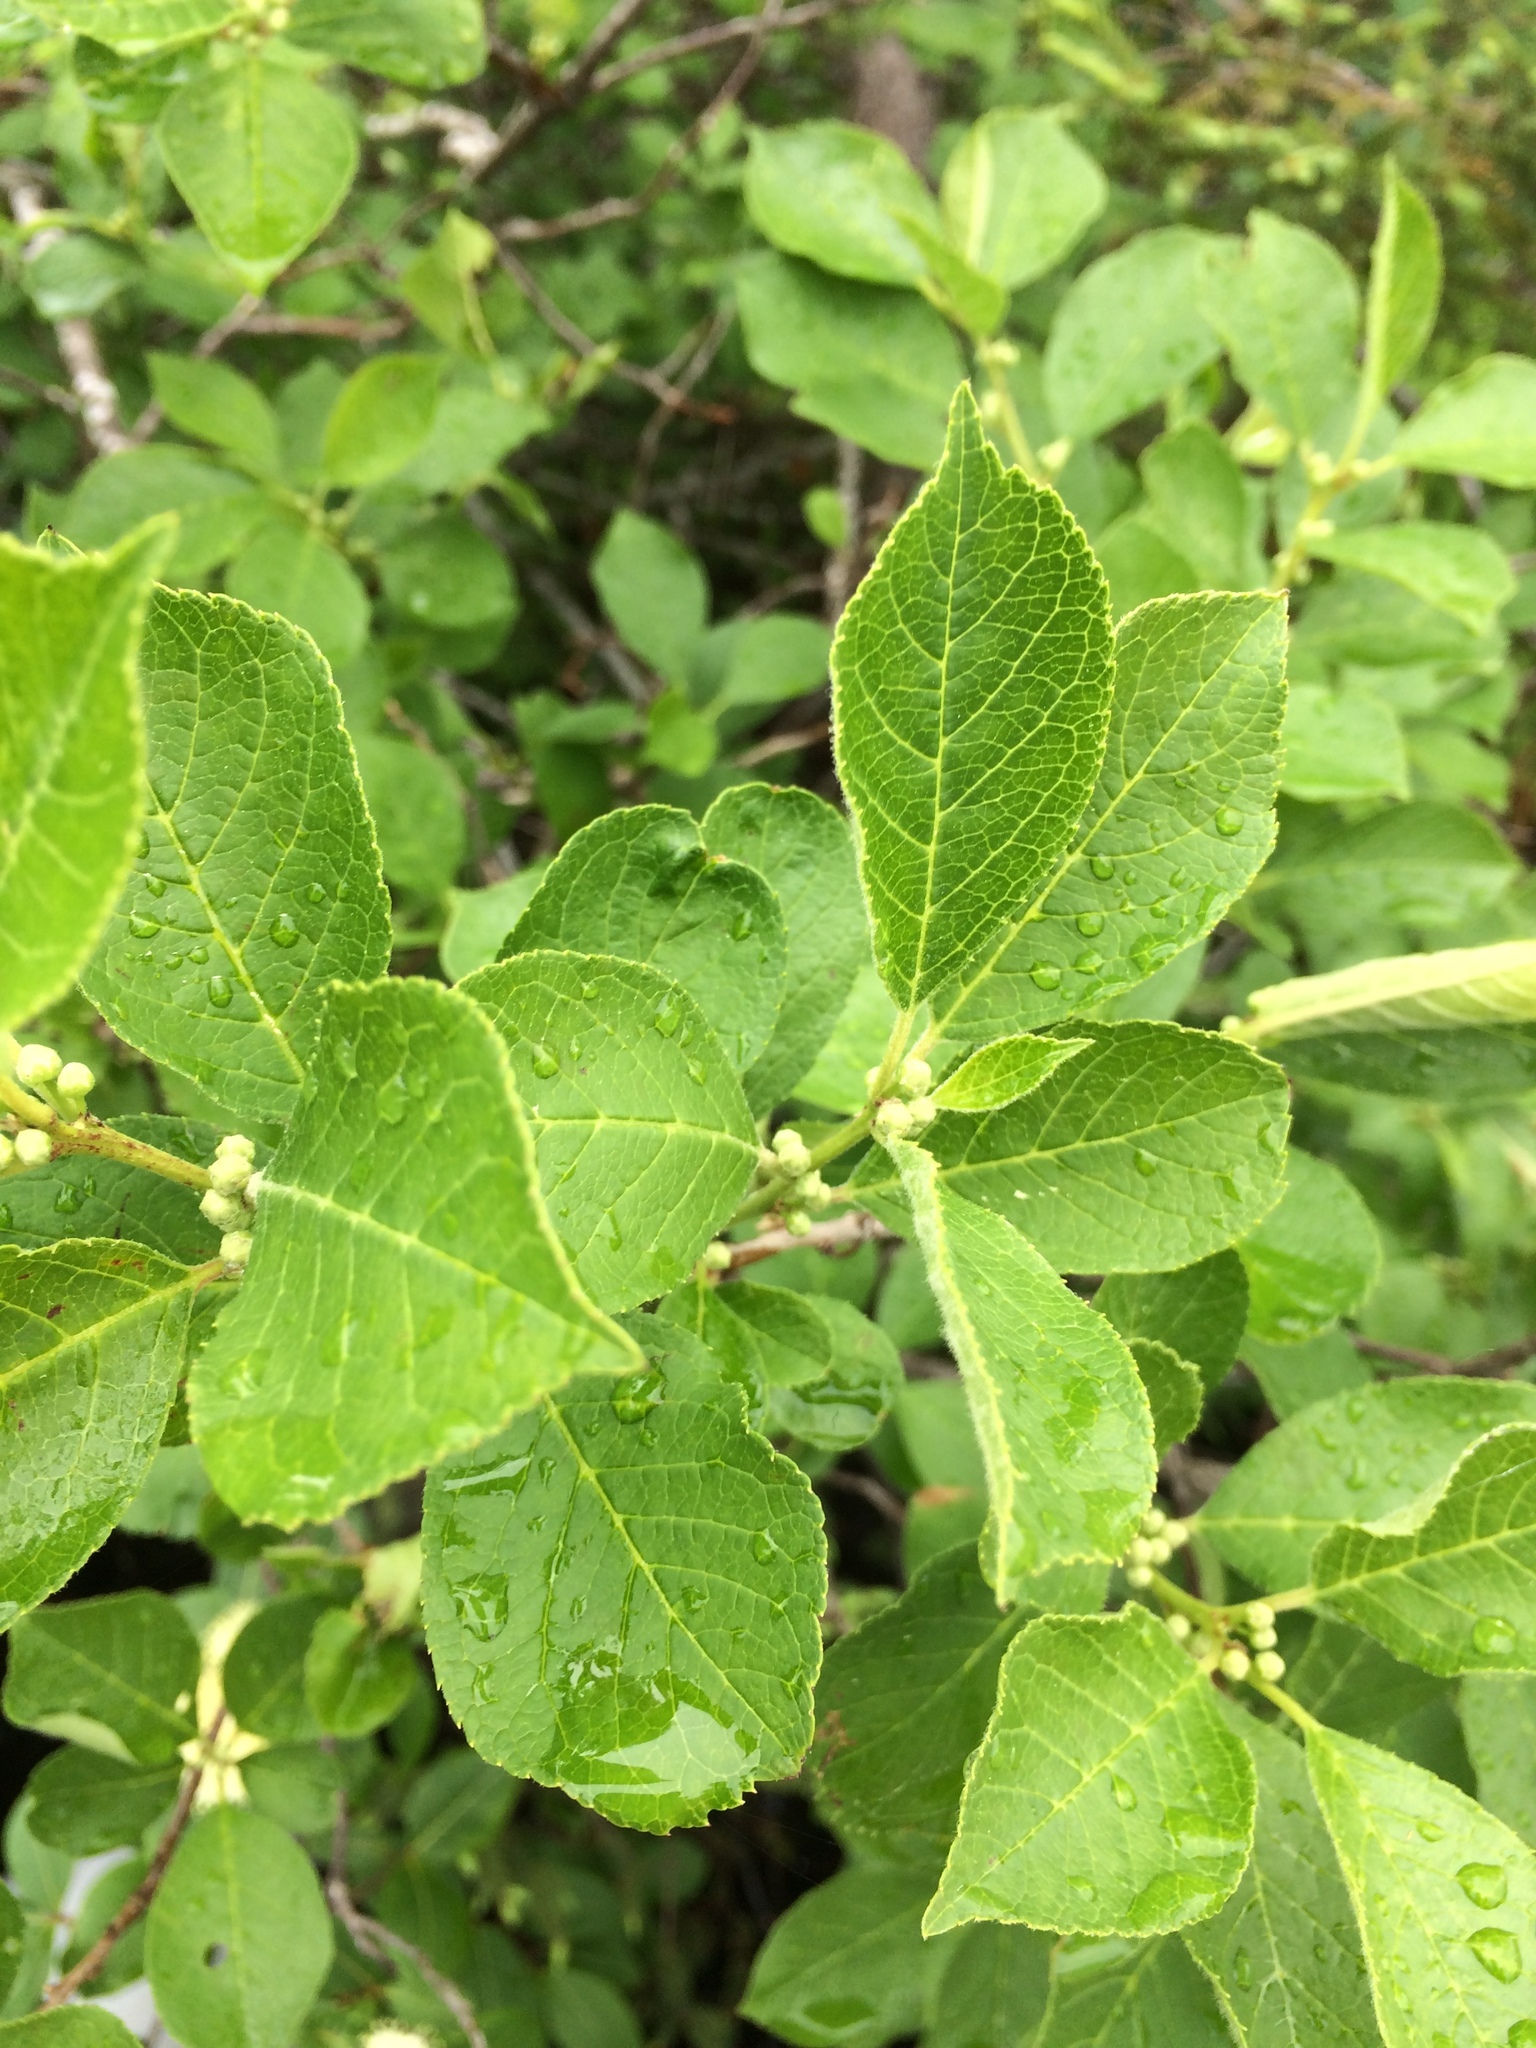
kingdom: Plantae
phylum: Tracheophyta
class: Magnoliopsida
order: Aquifoliales
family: Aquifoliaceae
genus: Ilex
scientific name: Ilex verticillata
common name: Virginia winterberry
